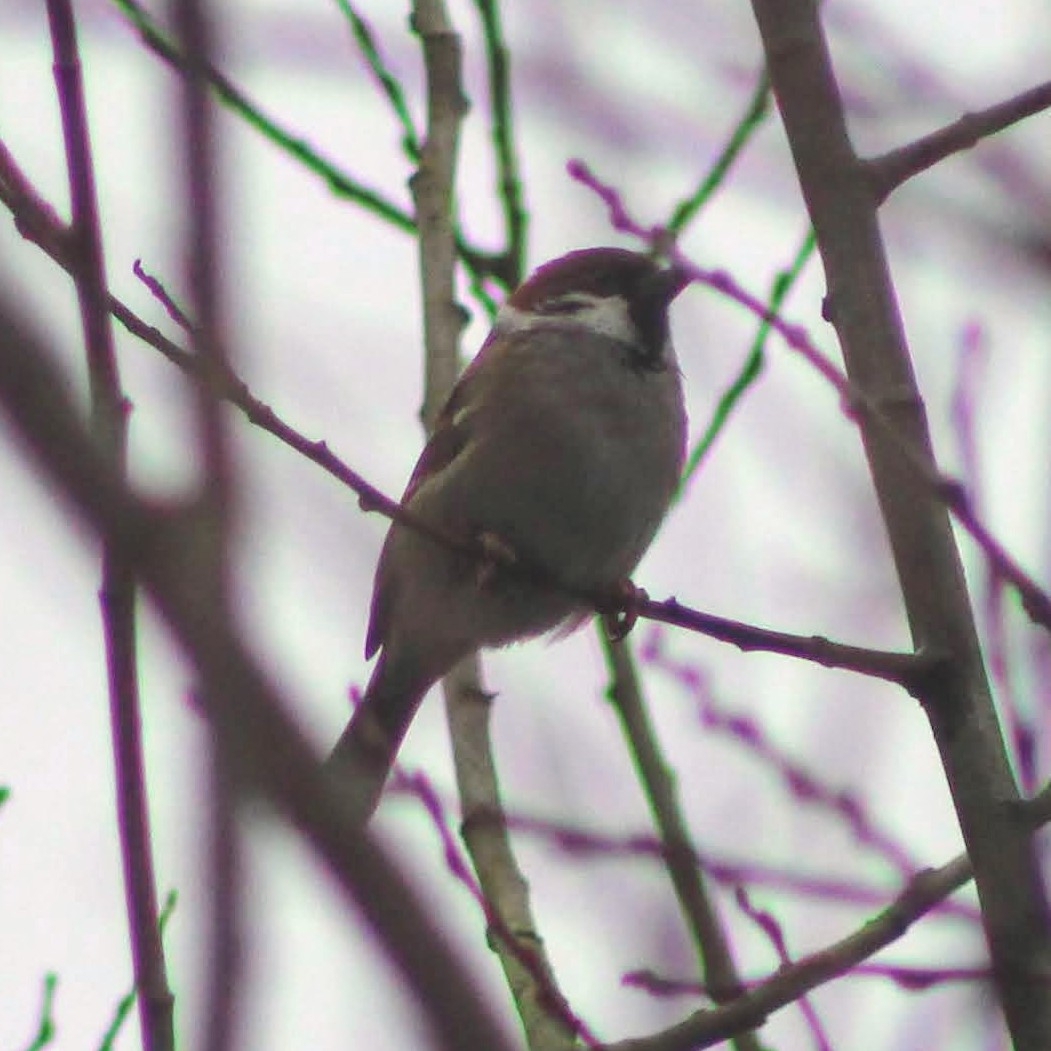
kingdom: Animalia
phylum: Chordata
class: Aves
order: Passeriformes
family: Passeridae
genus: Passer
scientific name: Passer montanus
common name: Eurasian tree sparrow
